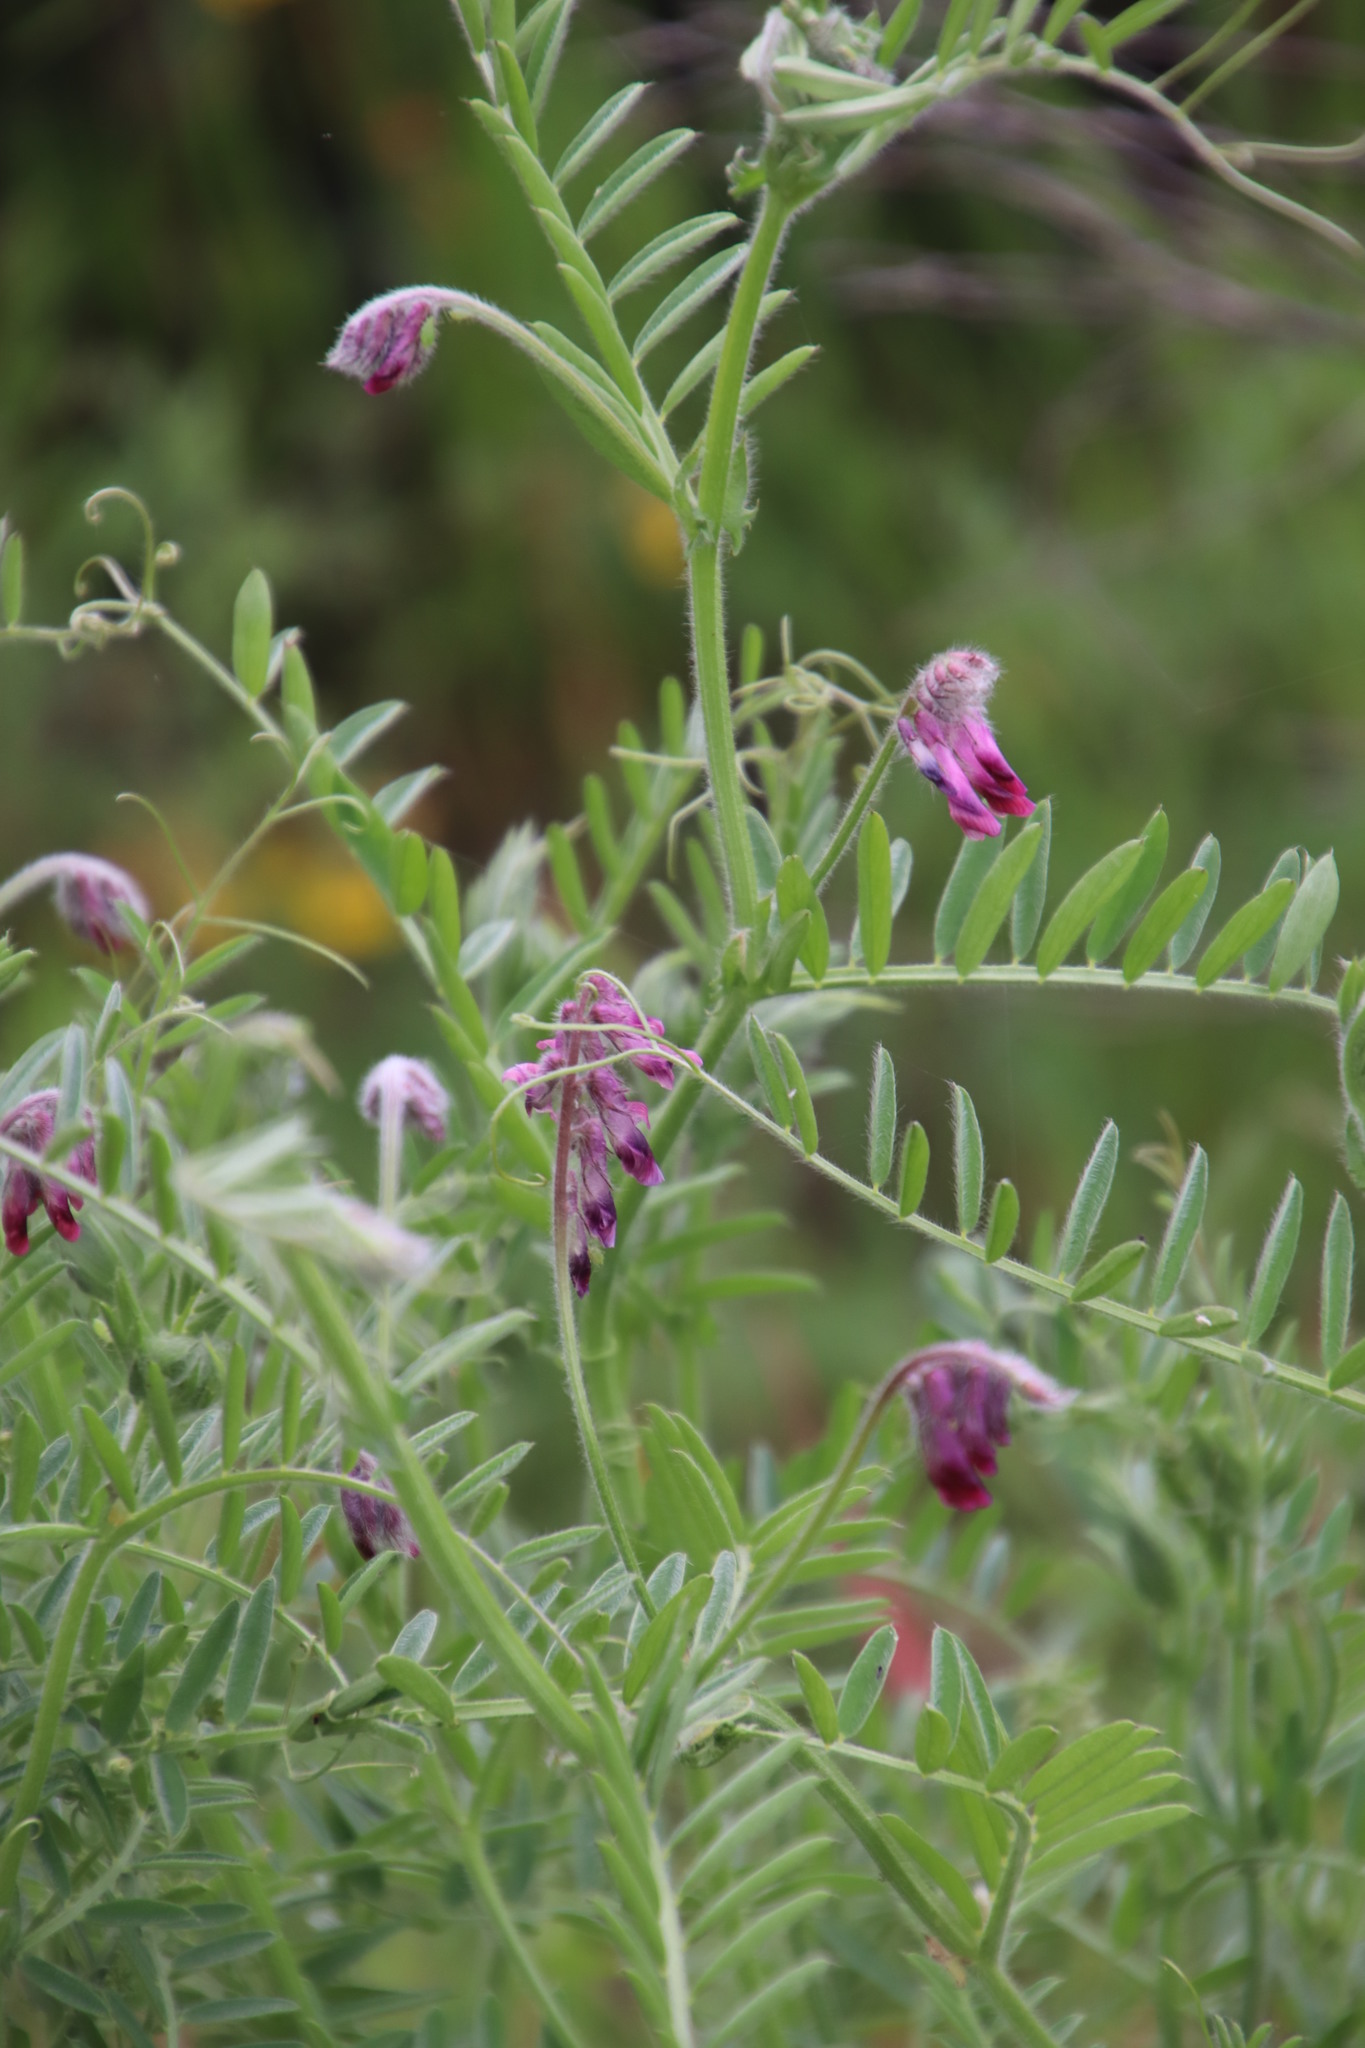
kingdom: Plantae
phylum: Tracheophyta
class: Magnoliopsida
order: Fabales
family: Fabaceae
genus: Vicia
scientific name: Vicia benghalensis
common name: Purple vetch
